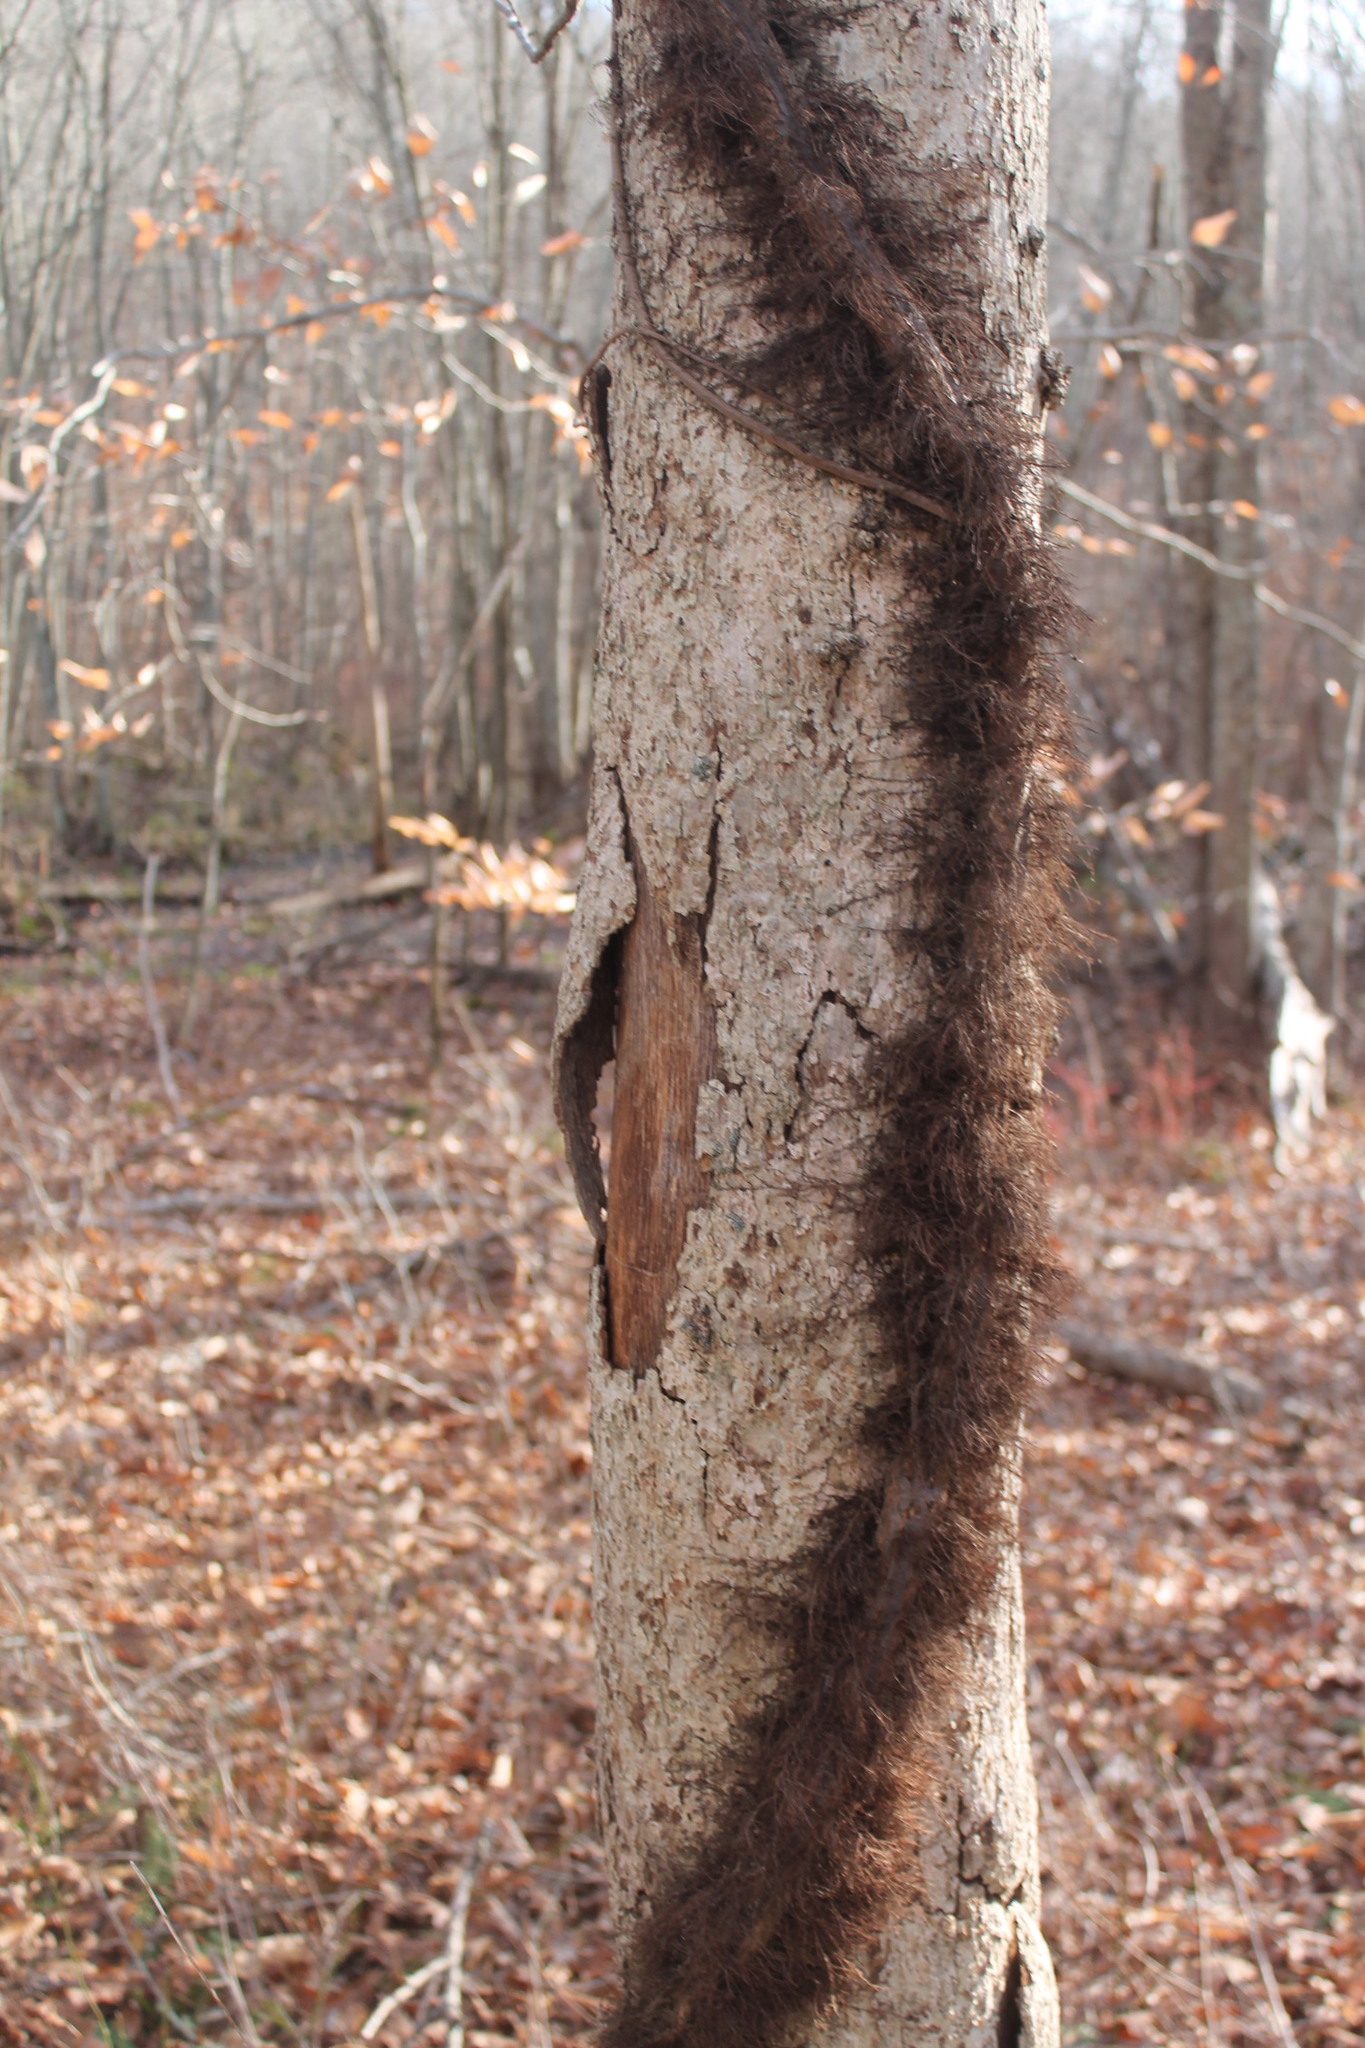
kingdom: Plantae
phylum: Tracheophyta
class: Magnoliopsida
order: Sapindales
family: Anacardiaceae
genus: Toxicodendron
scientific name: Toxicodendron radicans
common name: Poison ivy
